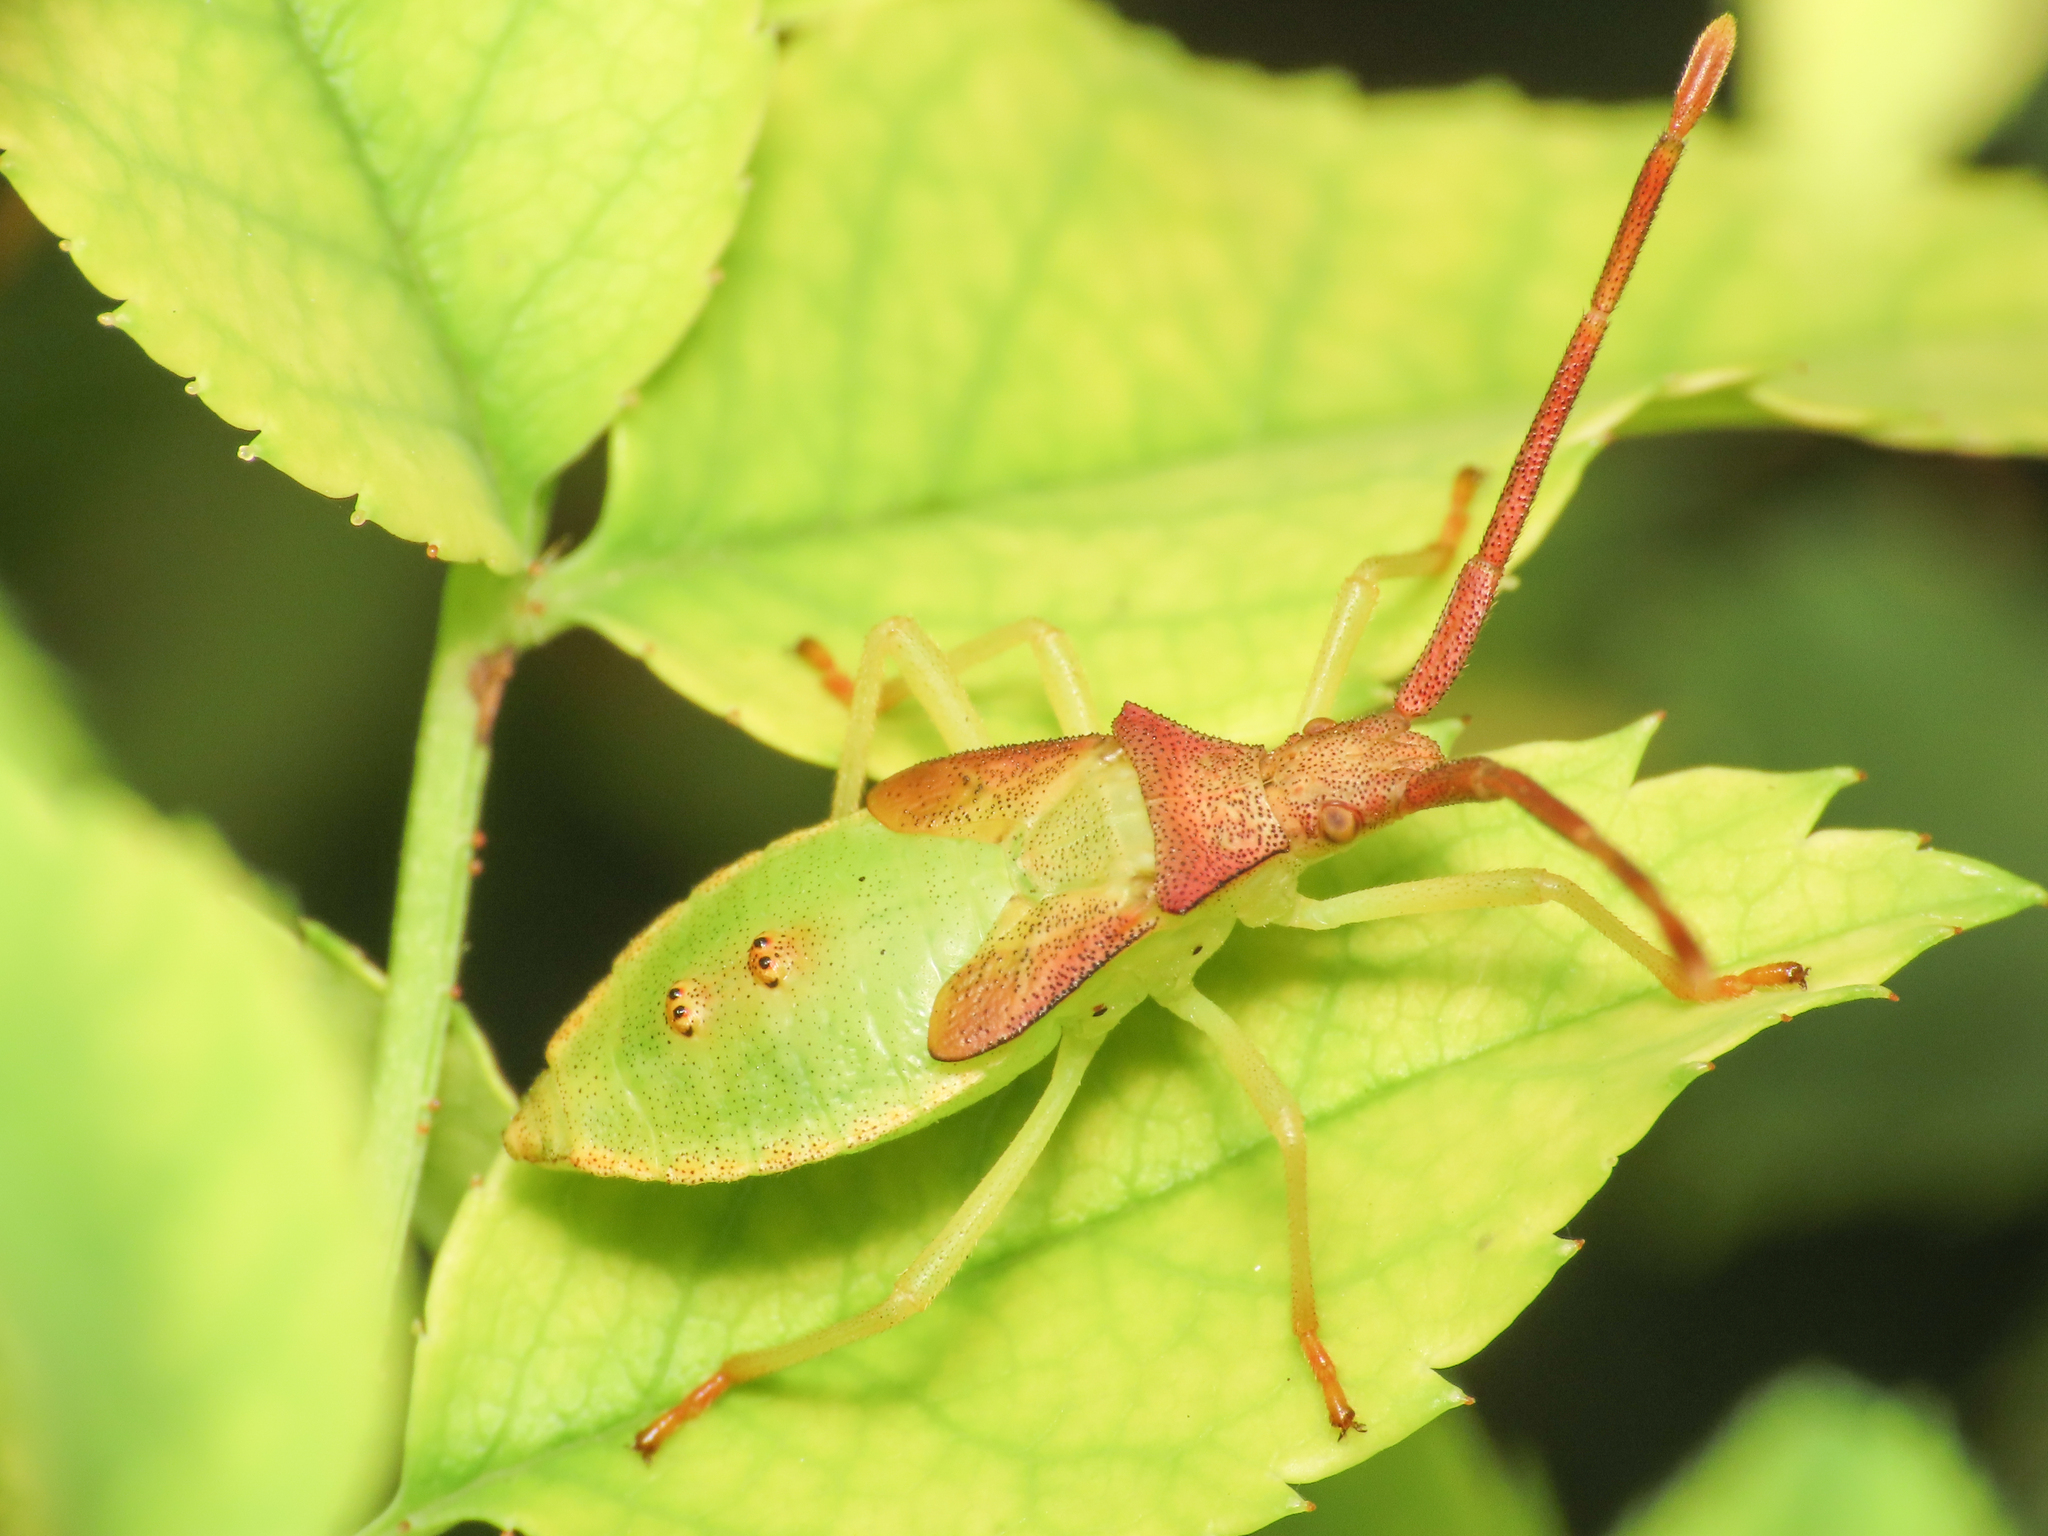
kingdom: Animalia
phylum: Arthropoda
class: Insecta
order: Hemiptera
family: Coreidae
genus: Gonocerus
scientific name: Gonocerus acuteangulatus
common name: Box bug
